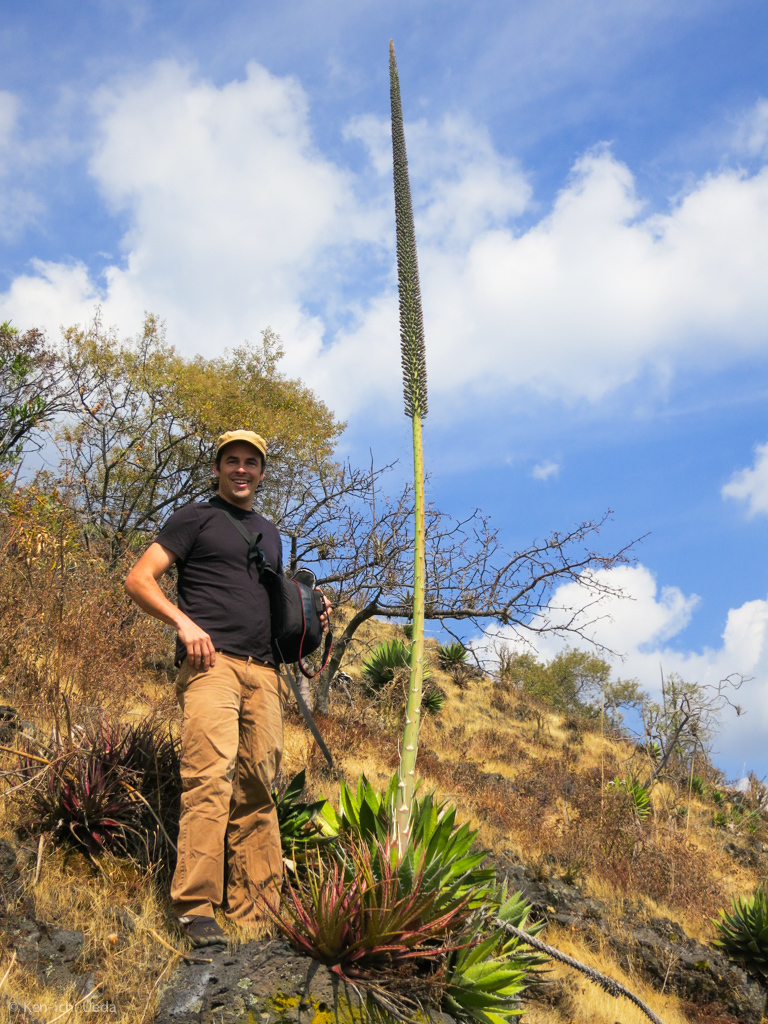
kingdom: Plantae
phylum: Tracheophyta
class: Liliopsida
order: Asparagales
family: Asparagaceae
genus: Agave
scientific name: Agave horrida
